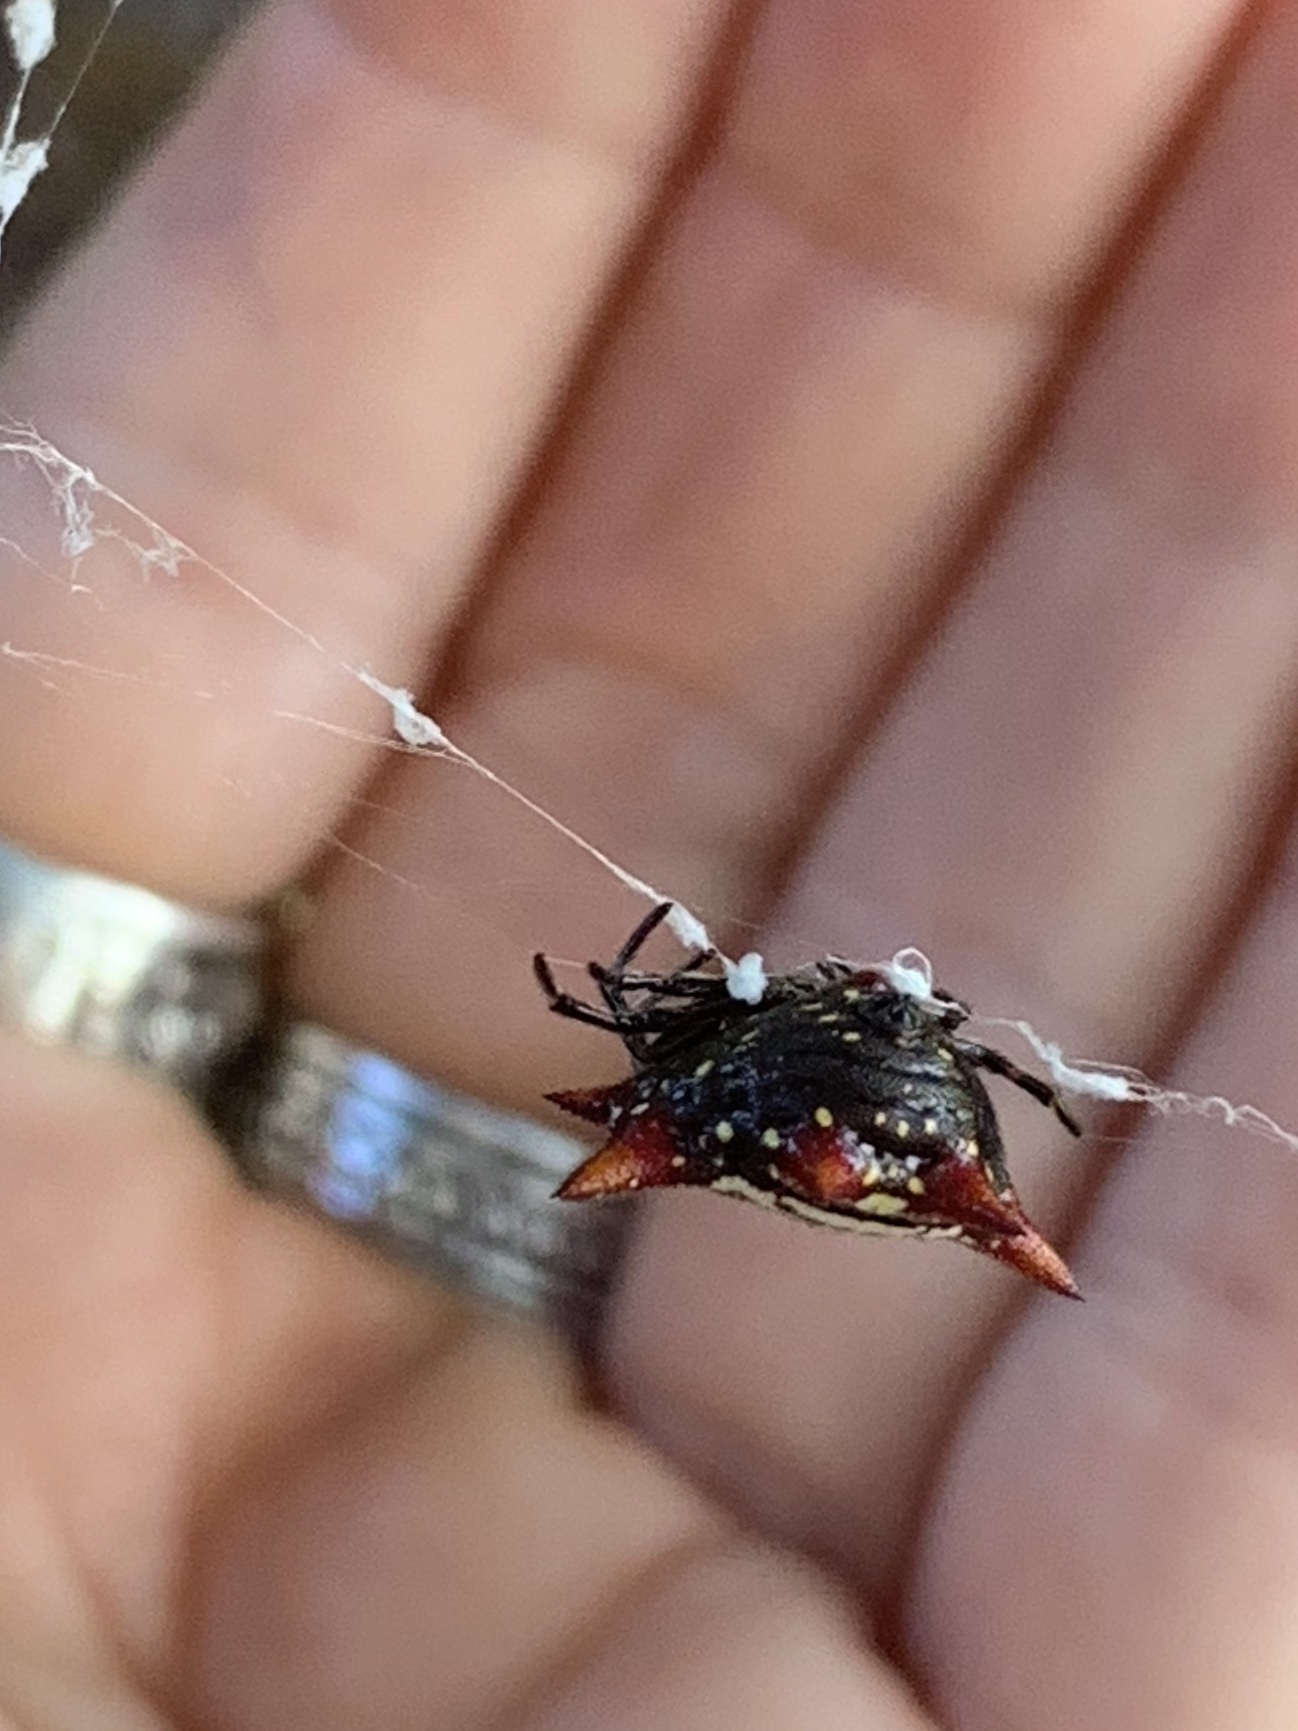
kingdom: Animalia
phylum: Arthropoda
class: Arachnida
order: Araneae
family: Araneidae
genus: Gasteracantha
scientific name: Gasteracantha cancriformis
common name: Orb weavers
